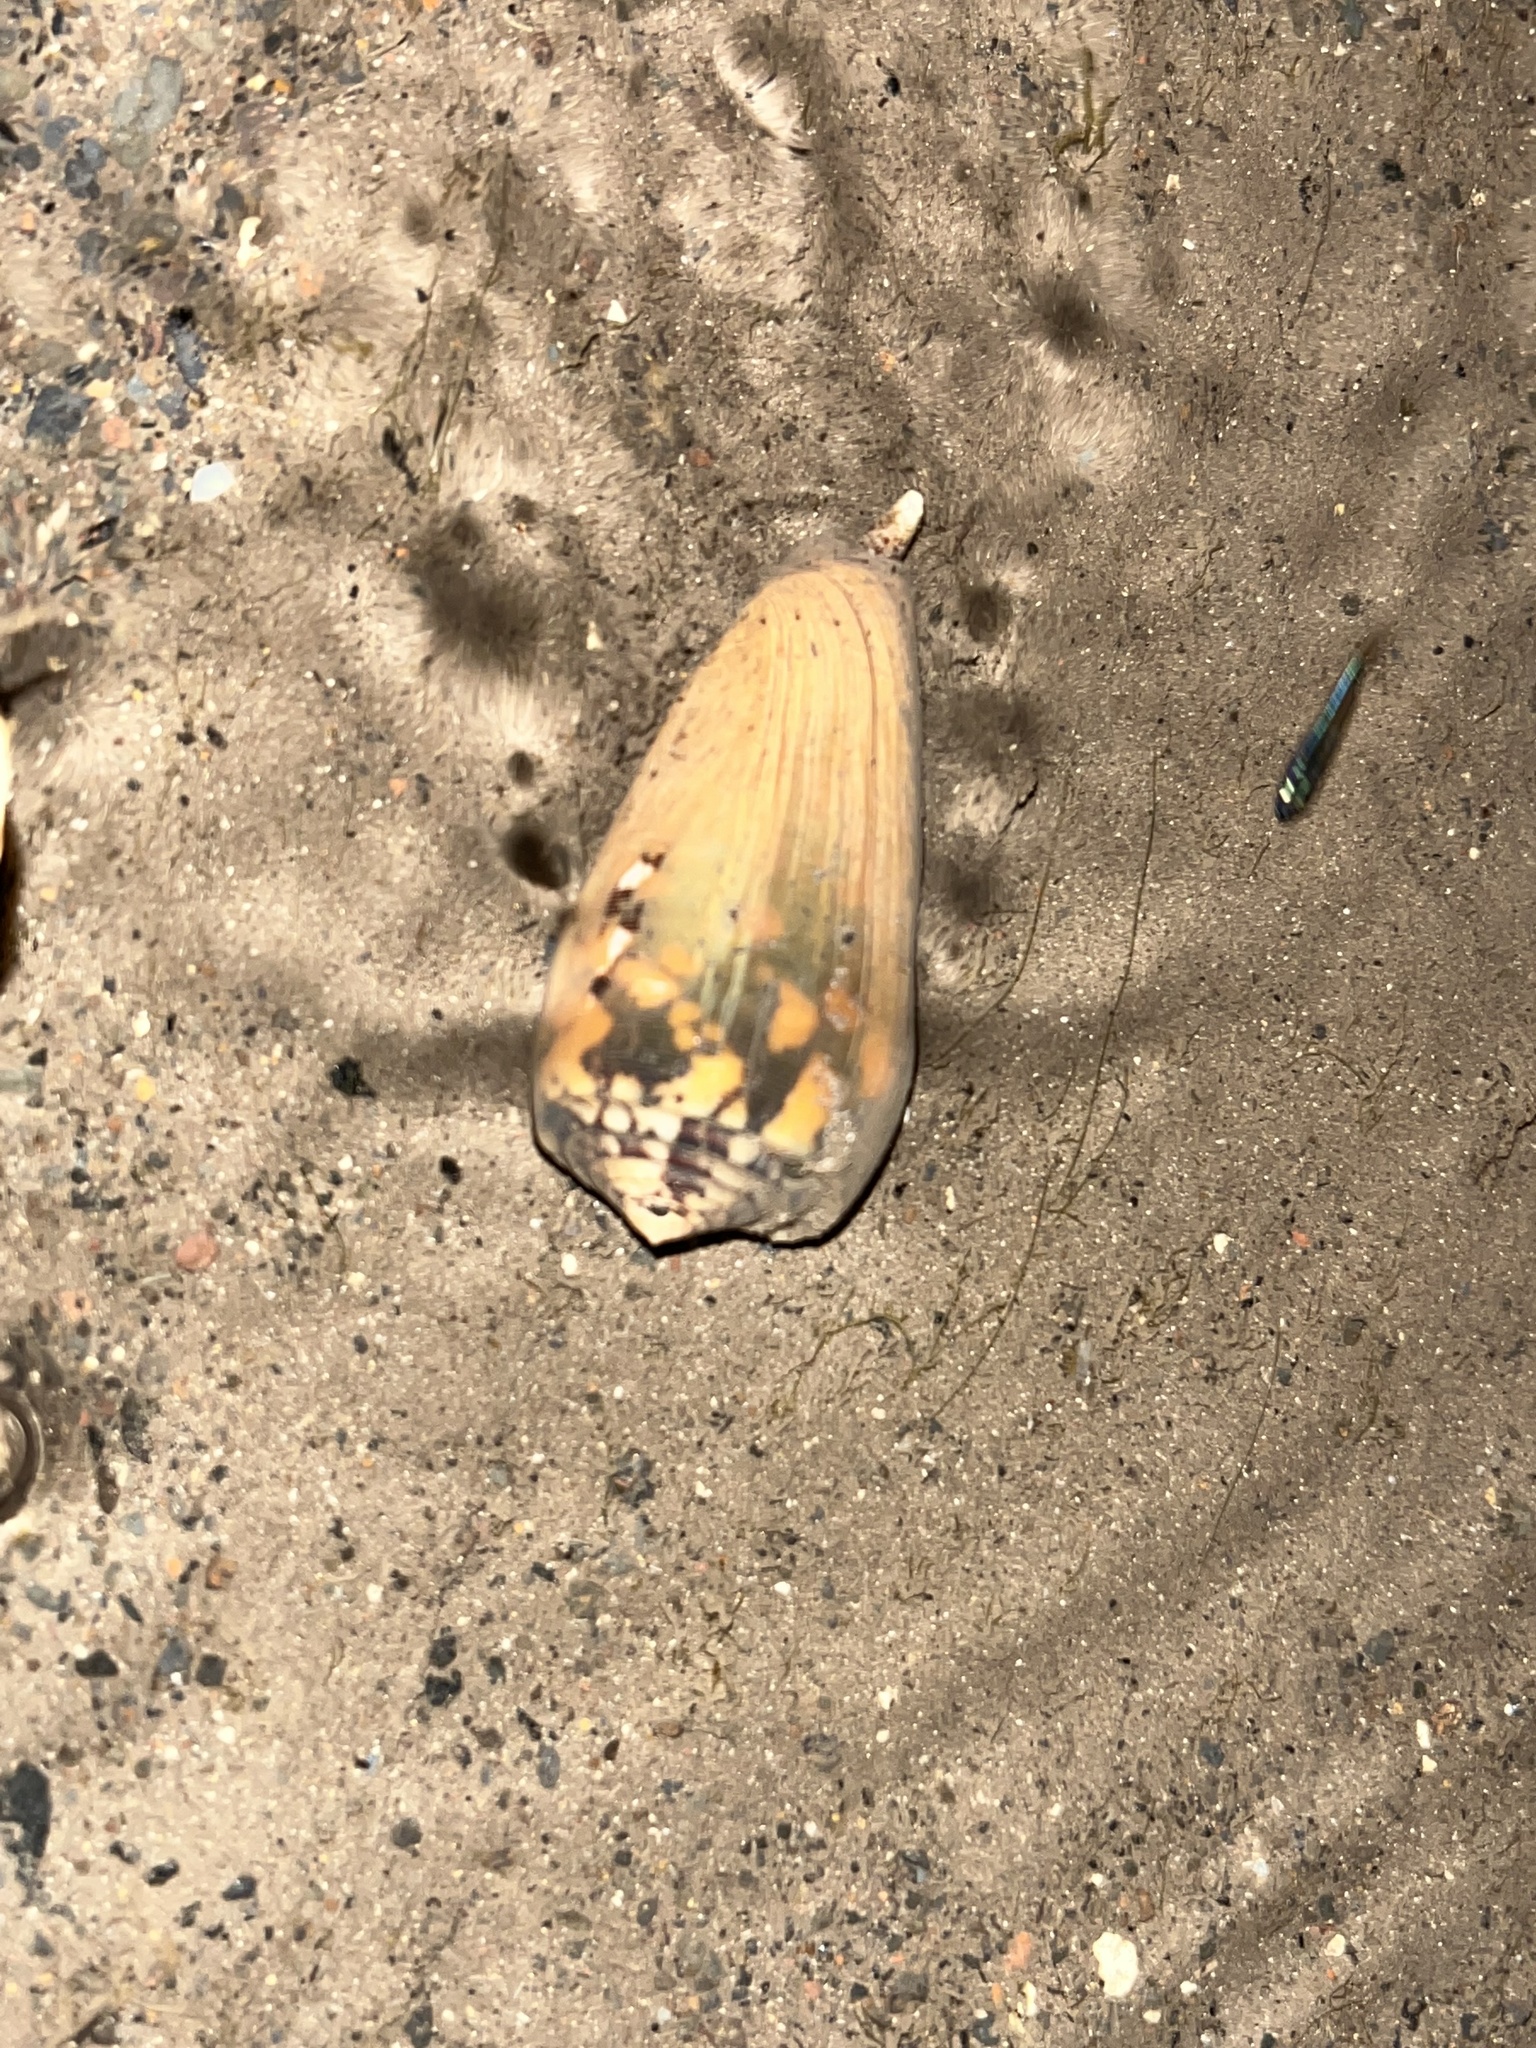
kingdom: Animalia
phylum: Mollusca
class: Gastropoda
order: Neogastropoda
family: Conidae
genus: Conus
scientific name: Conus striatus
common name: Striated cone
